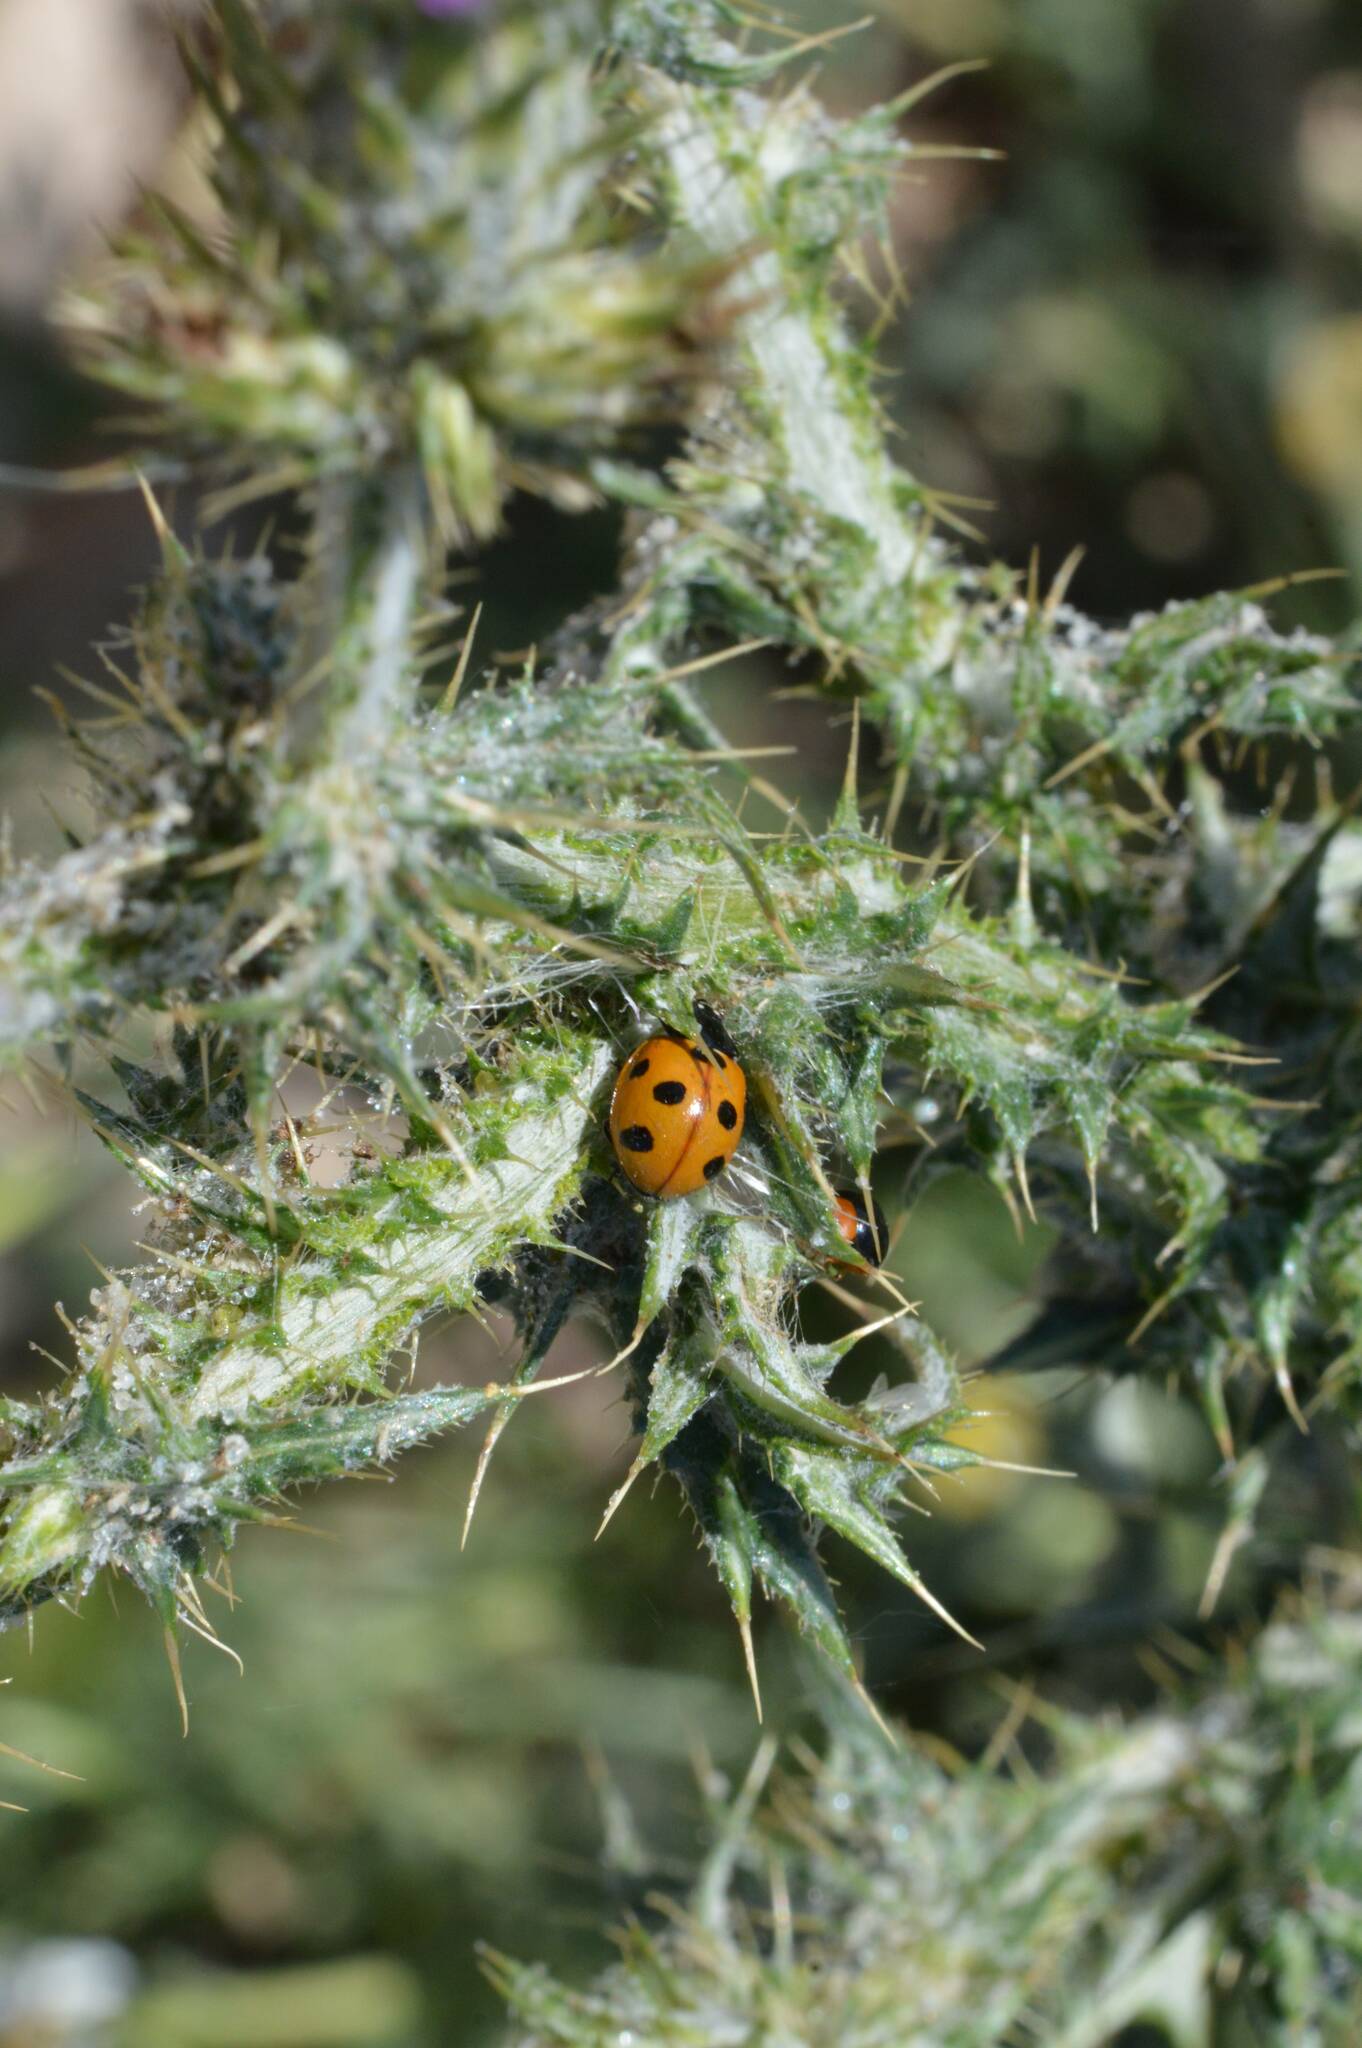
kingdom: Animalia
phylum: Arthropoda
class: Insecta
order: Coleoptera
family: Coccinellidae
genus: Coccinella
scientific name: Coccinella algerica
